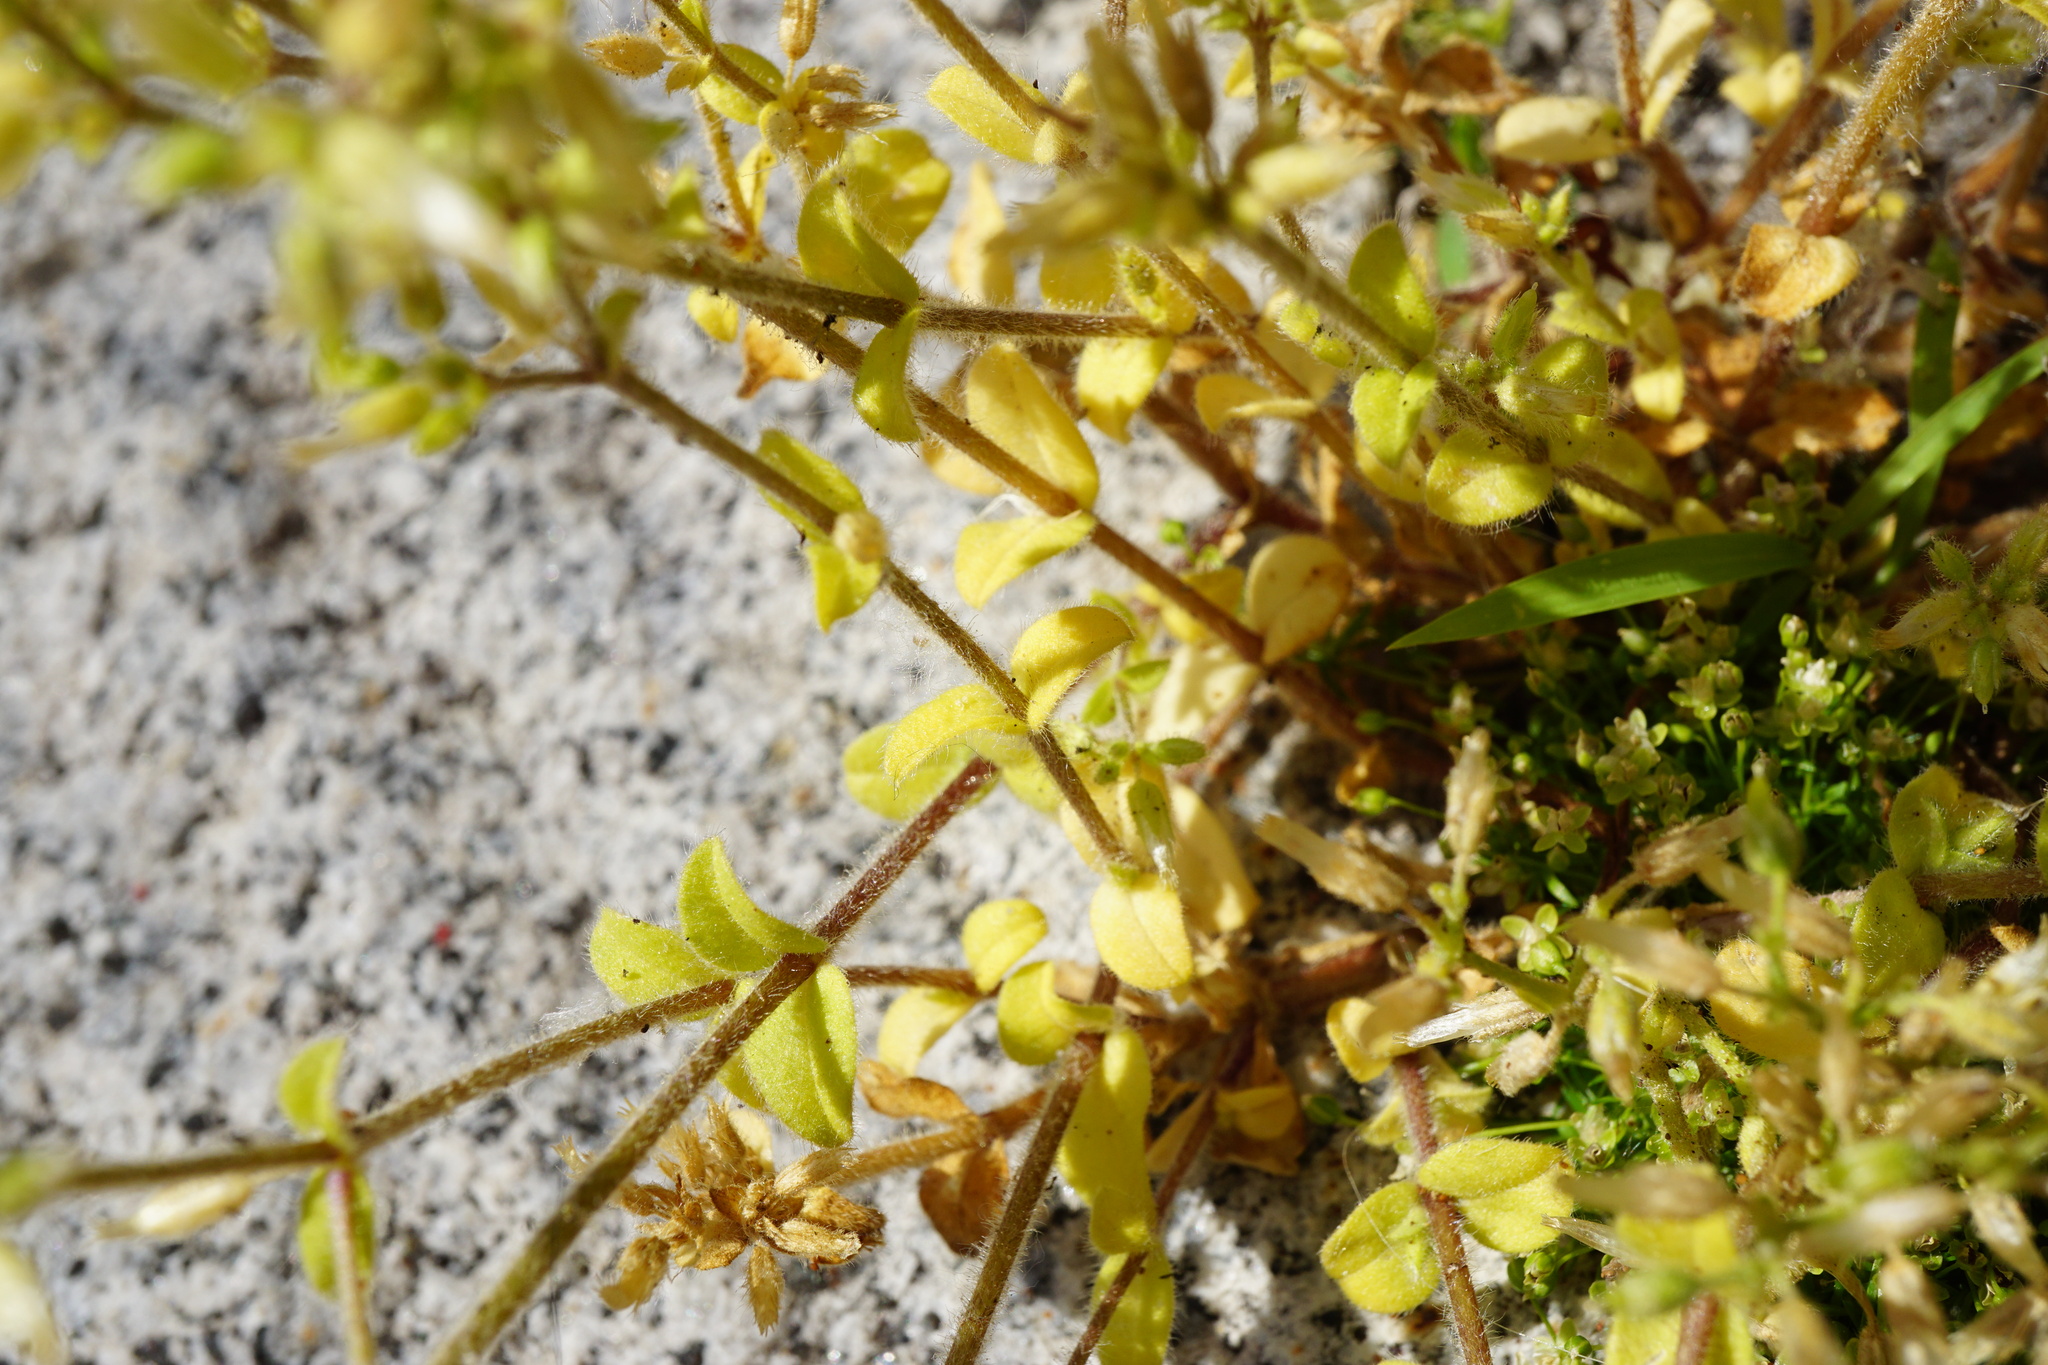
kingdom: Plantae
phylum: Tracheophyta
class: Magnoliopsida
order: Caryophyllales
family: Caryophyllaceae
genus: Cerastium
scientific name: Cerastium glomeratum
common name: Sticky chickweed
